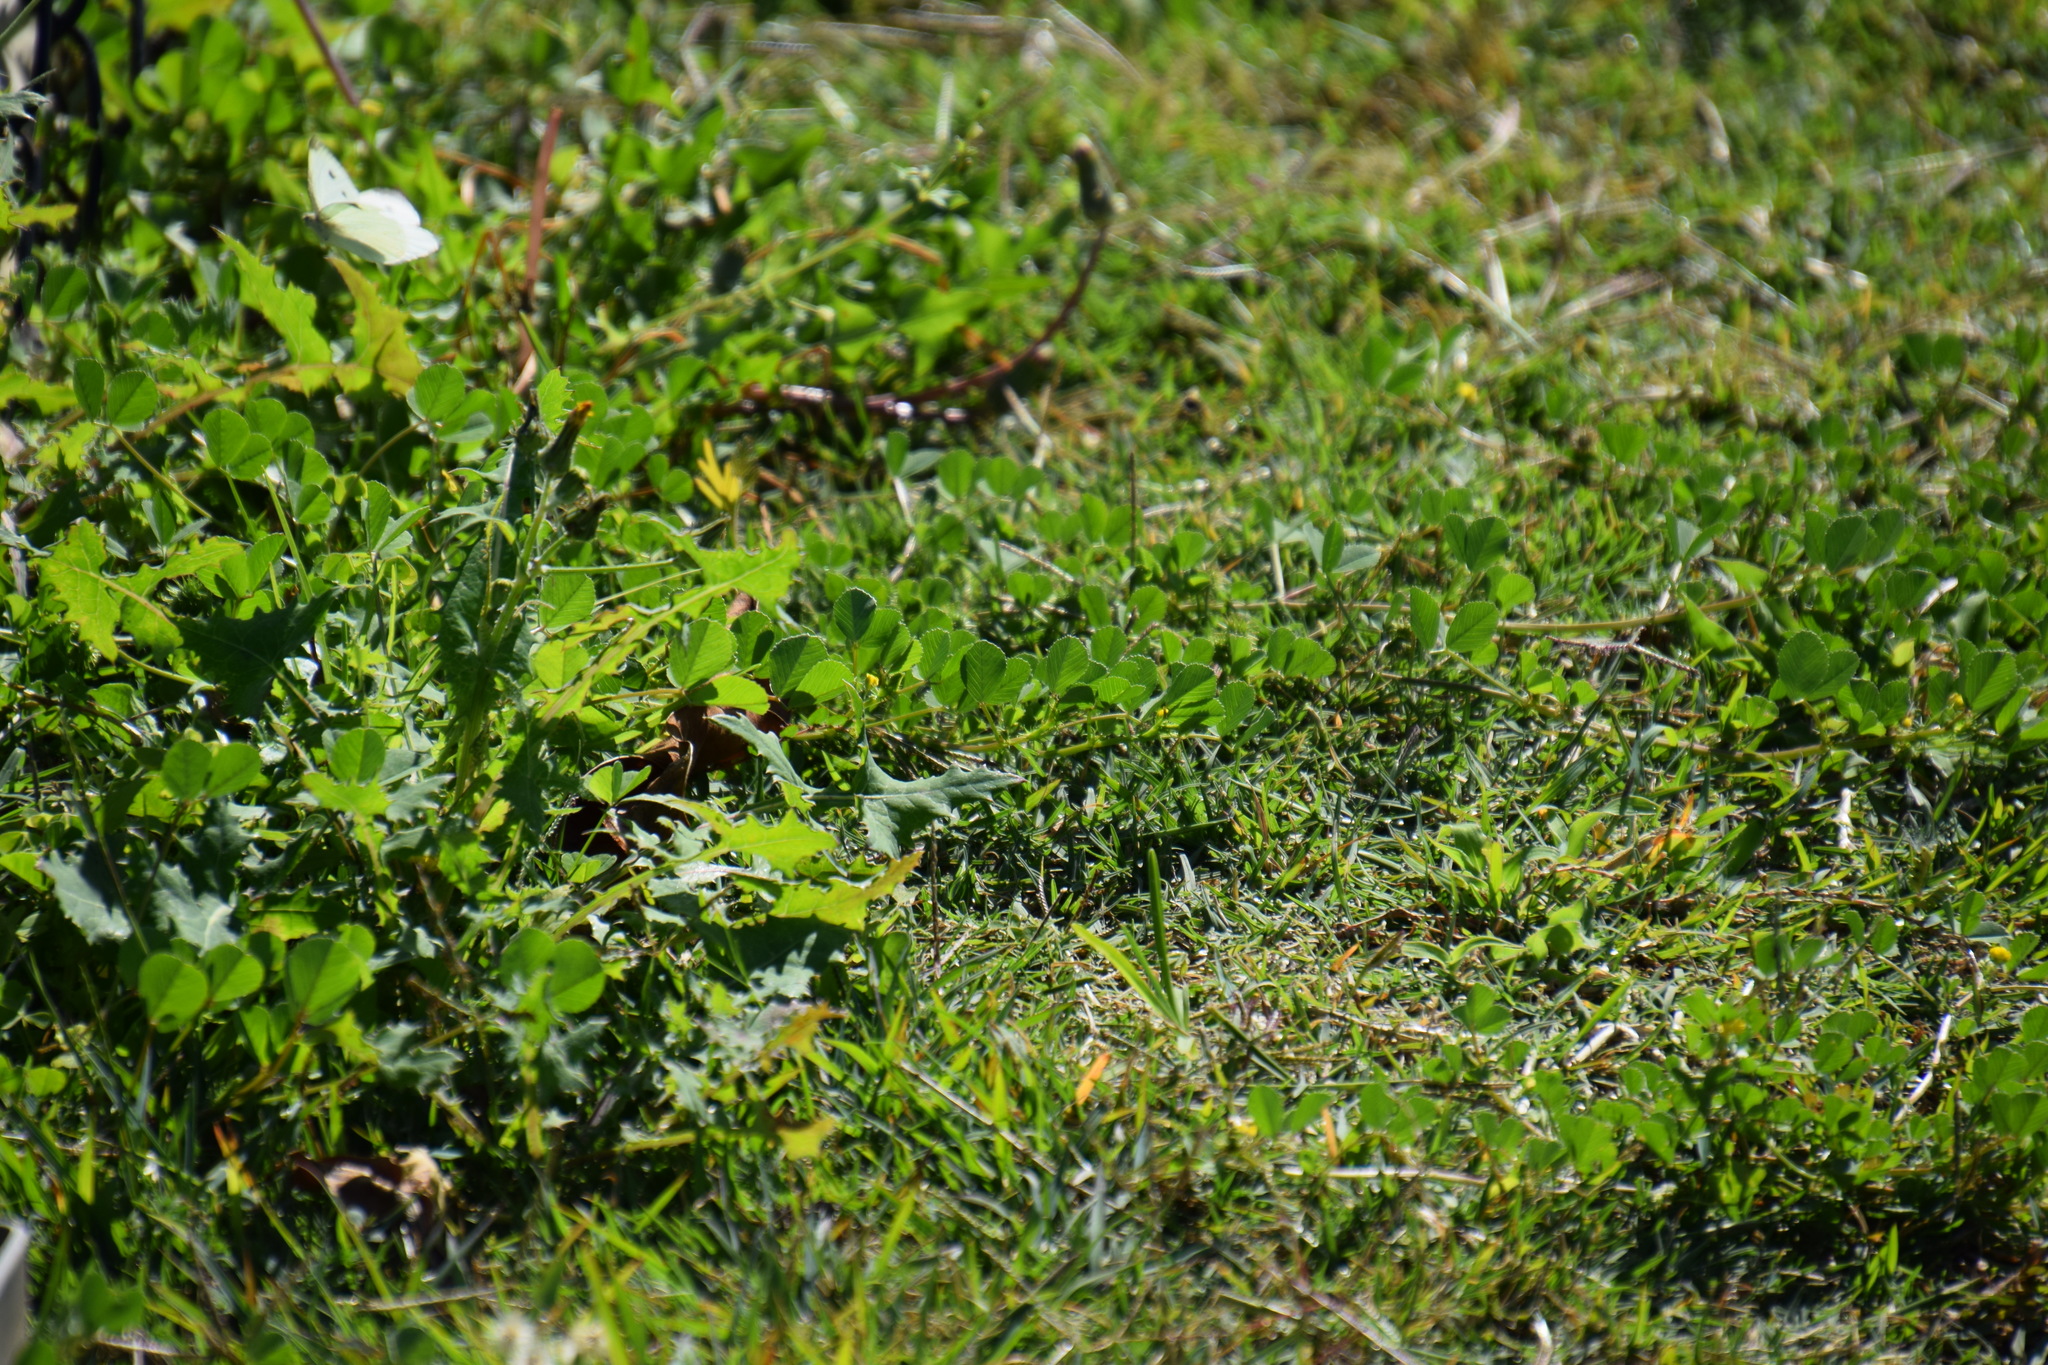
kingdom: Animalia
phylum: Arthropoda
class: Insecta
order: Lepidoptera
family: Pieridae
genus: Pieris
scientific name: Pieris rapae
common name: Small white
